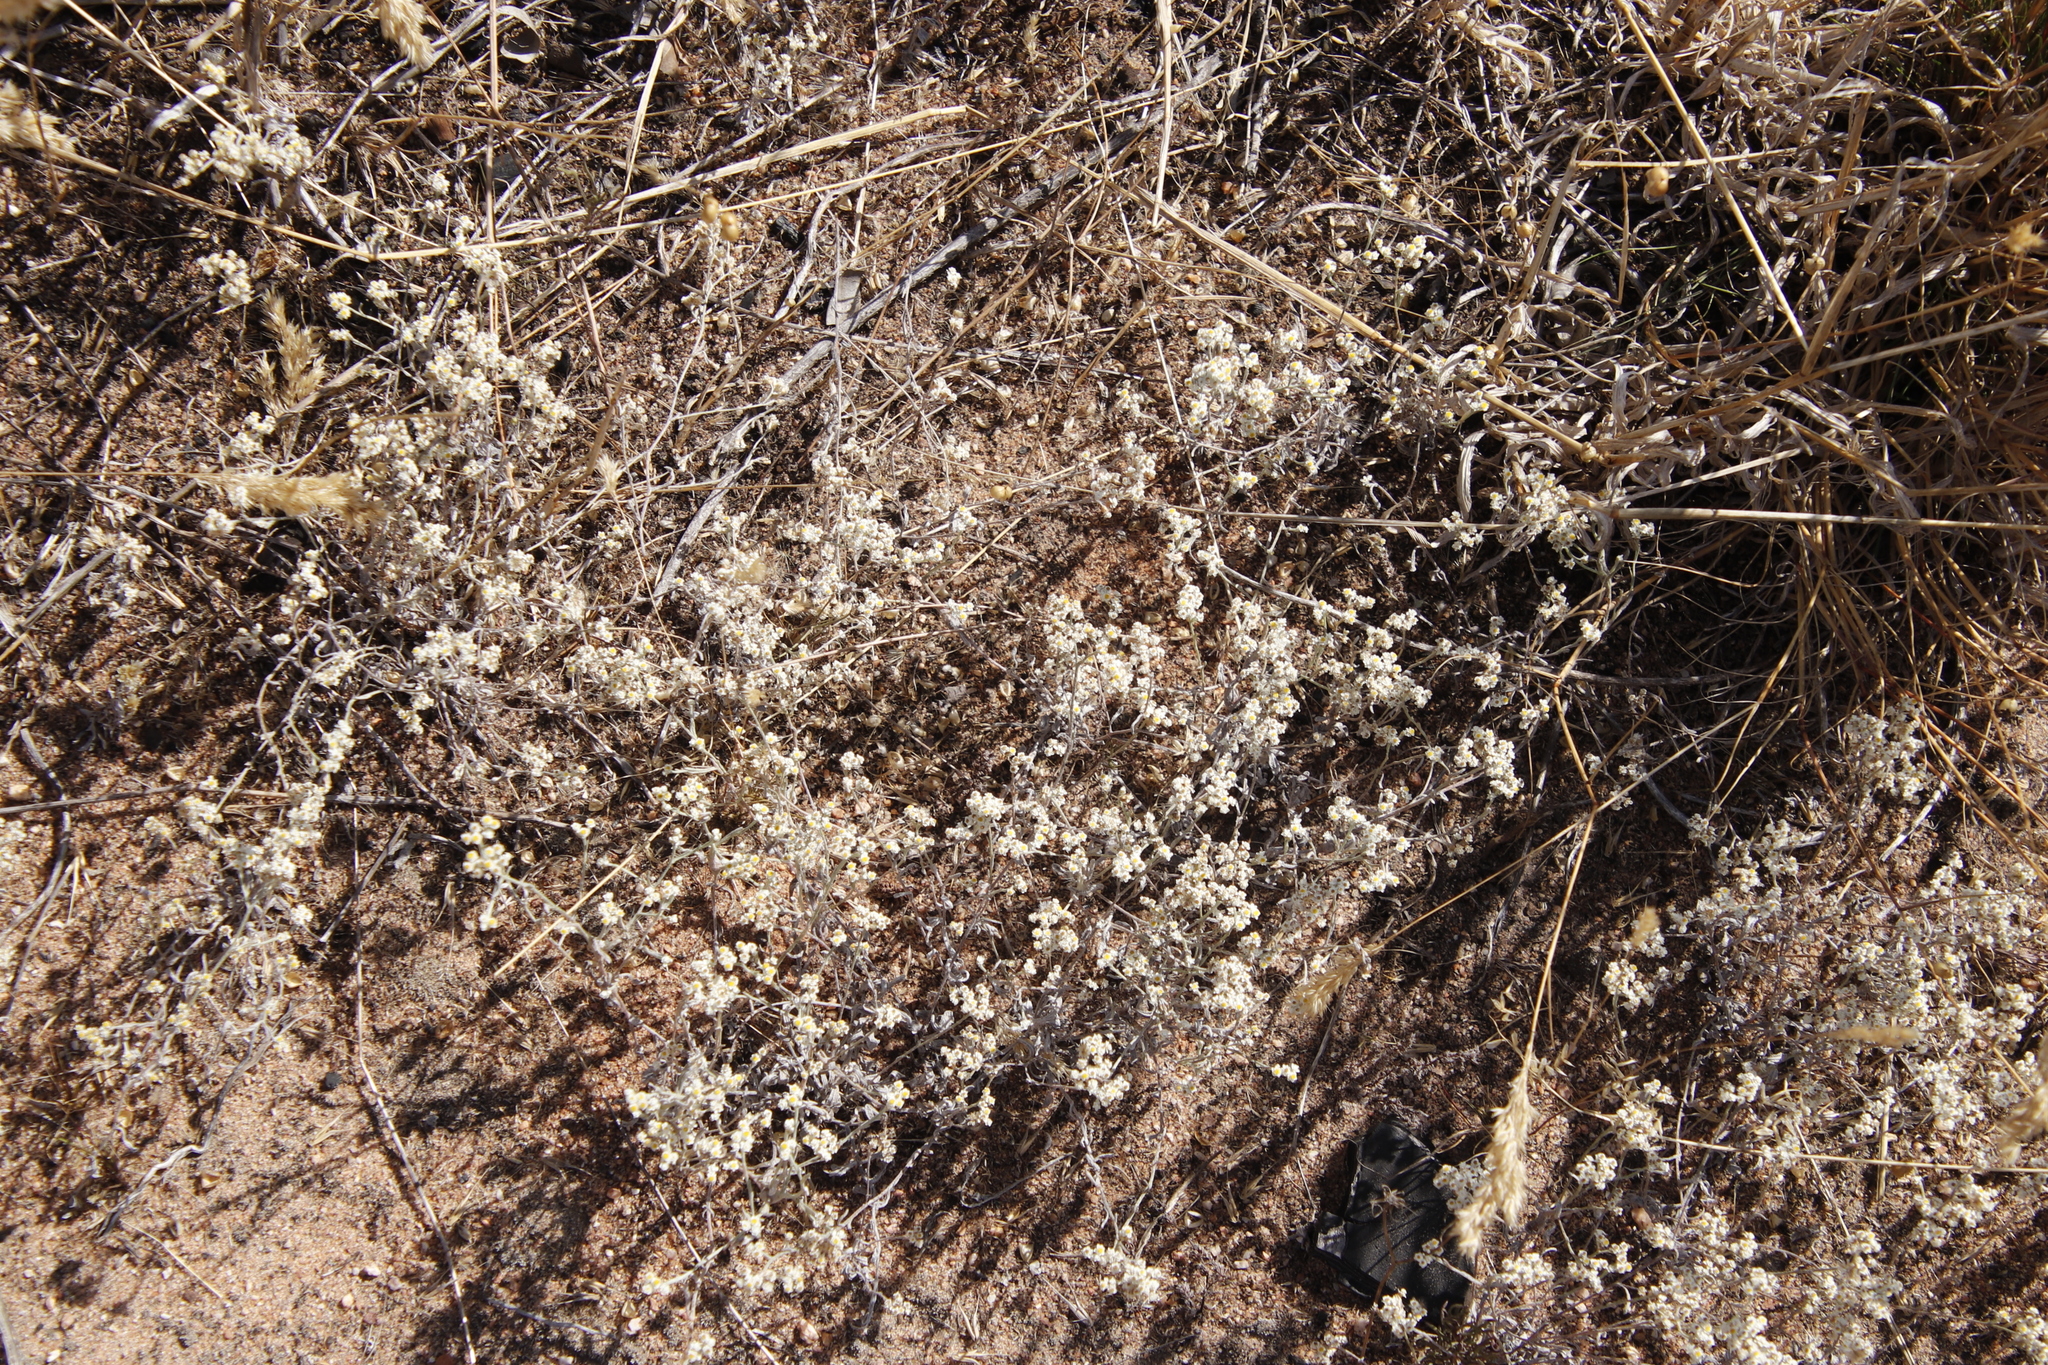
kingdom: Plantae
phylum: Tracheophyta
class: Magnoliopsida
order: Asterales
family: Asteraceae
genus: Helichrysum
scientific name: Helichrysum indicum
